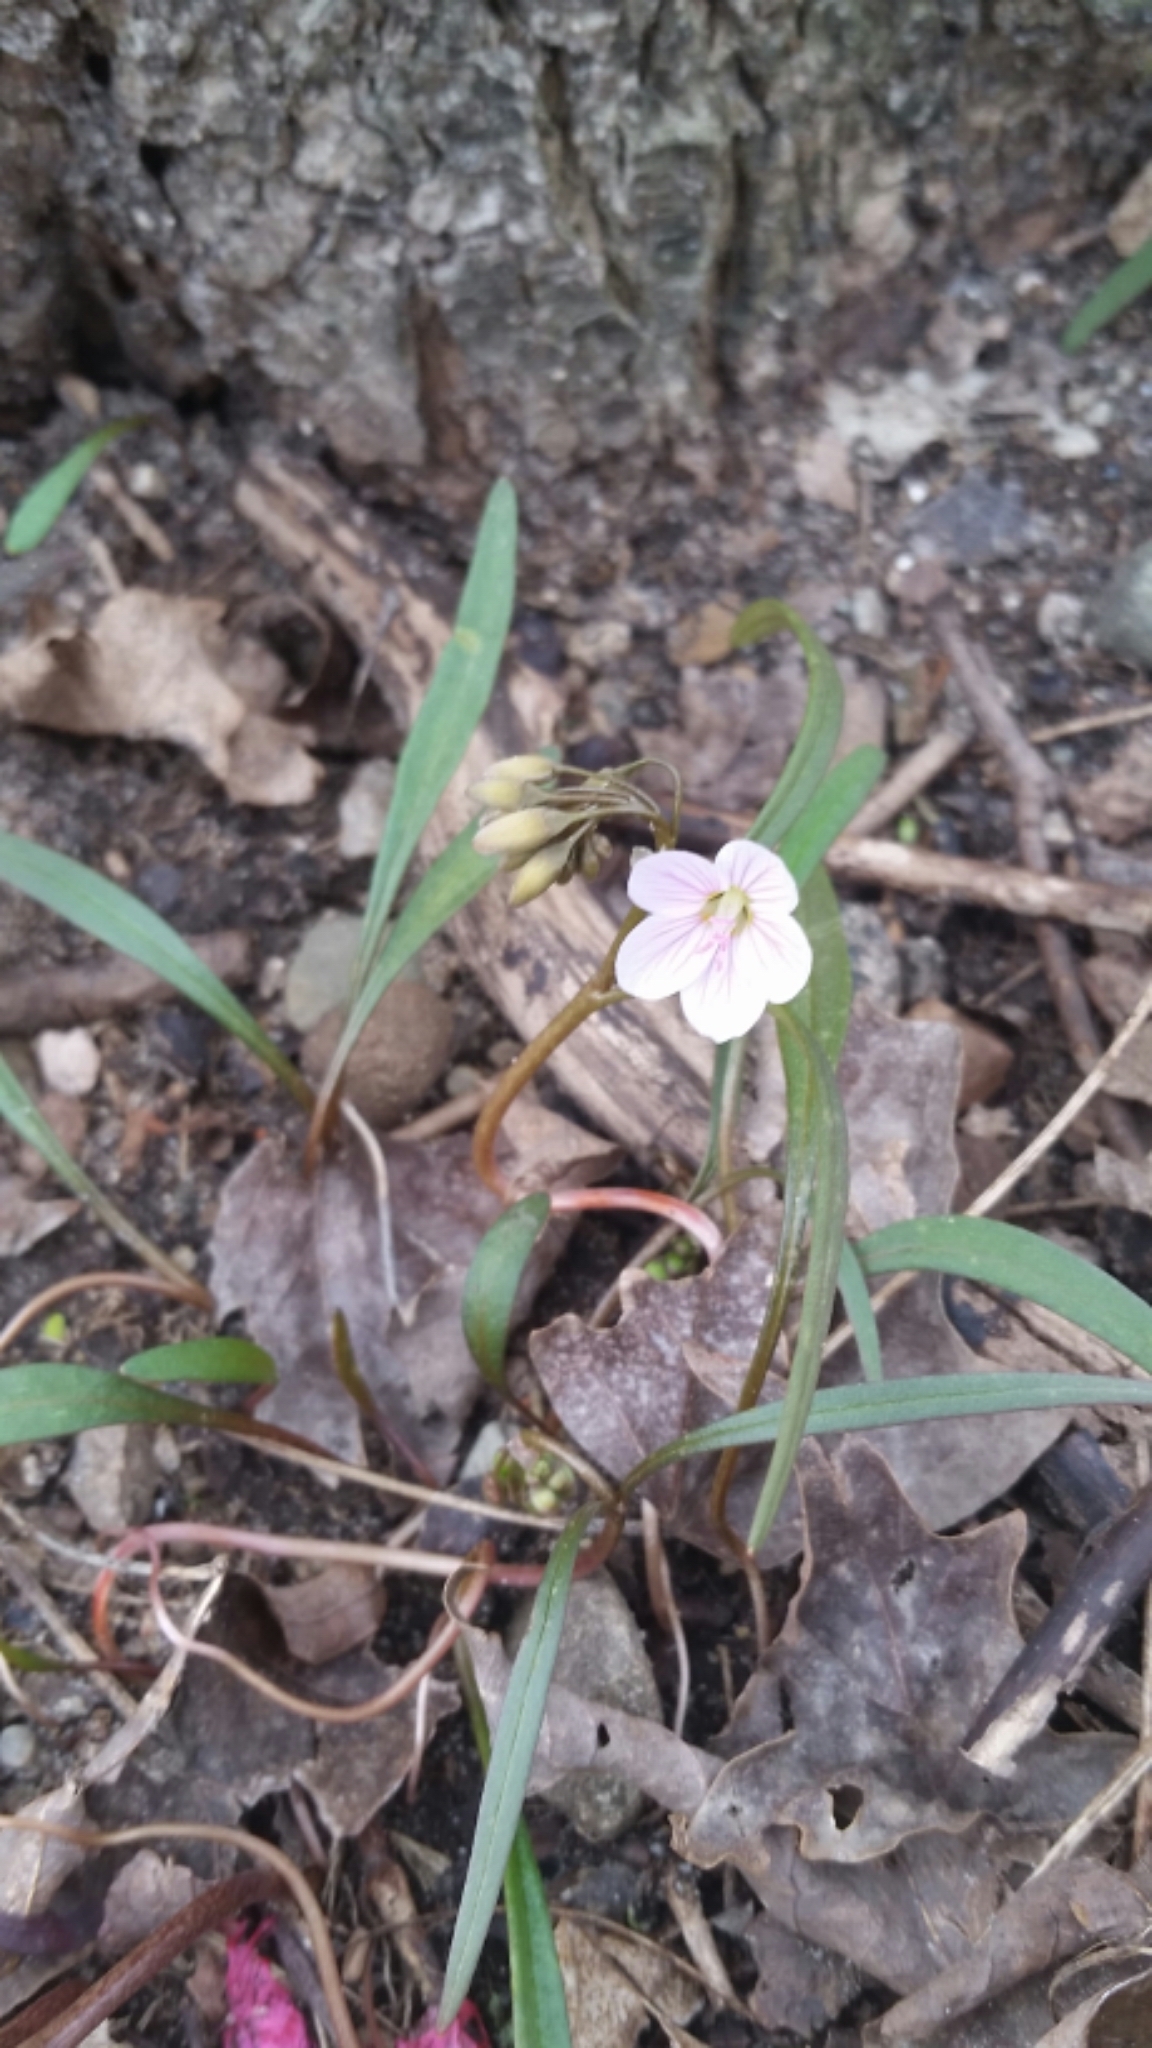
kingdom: Plantae
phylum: Tracheophyta
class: Magnoliopsida
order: Caryophyllales
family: Montiaceae
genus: Claytonia
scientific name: Claytonia virginica
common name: Virginia springbeauty
